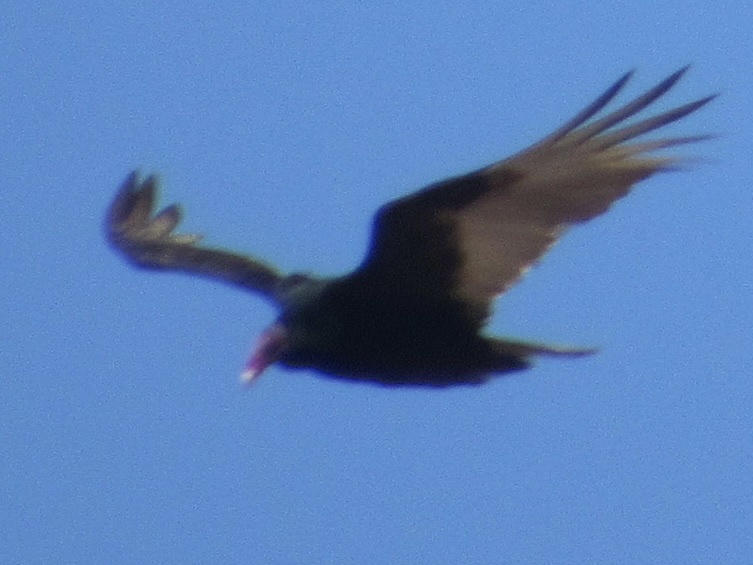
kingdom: Animalia
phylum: Chordata
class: Aves
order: Accipitriformes
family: Cathartidae
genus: Cathartes
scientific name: Cathartes aura
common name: Turkey vulture
